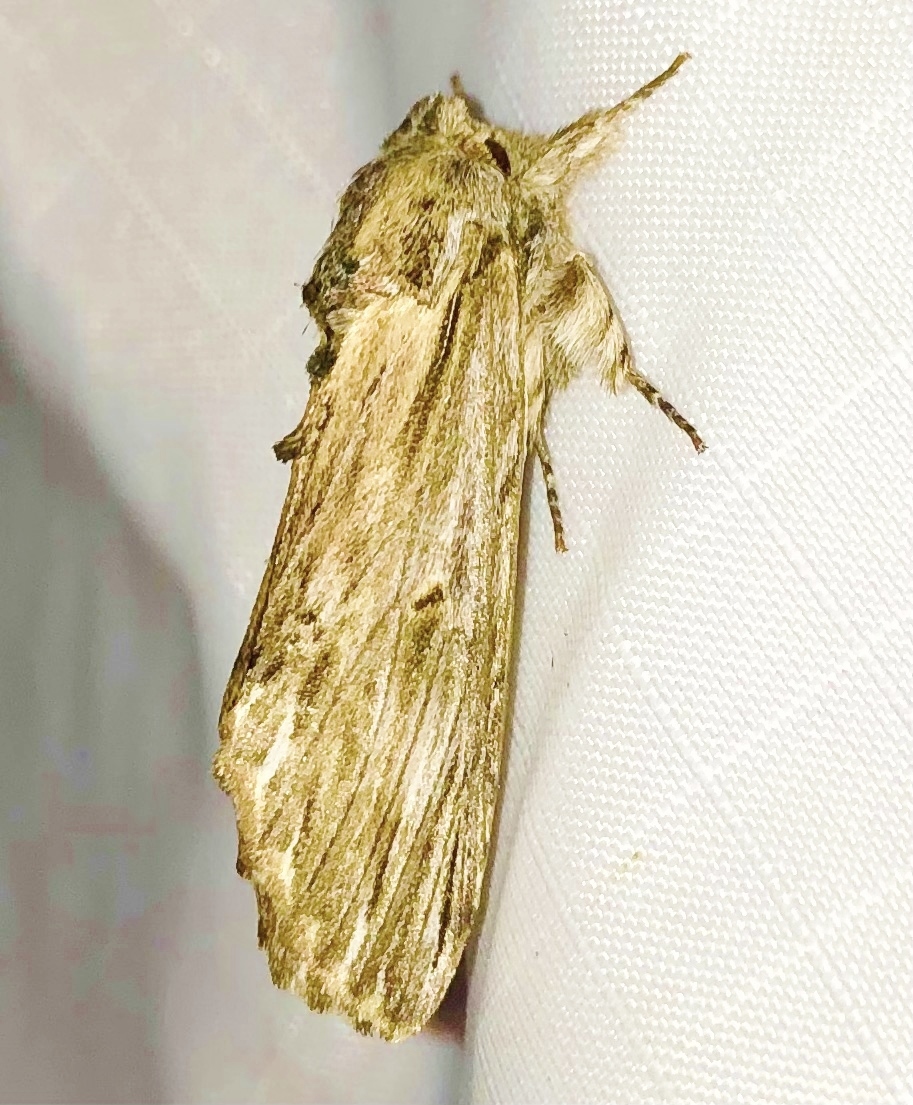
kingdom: Animalia
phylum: Arthropoda
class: Insecta
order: Lepidoptera
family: Notodontidae
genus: Oligocentria
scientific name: Oligocentria Ianassa lignicolor
